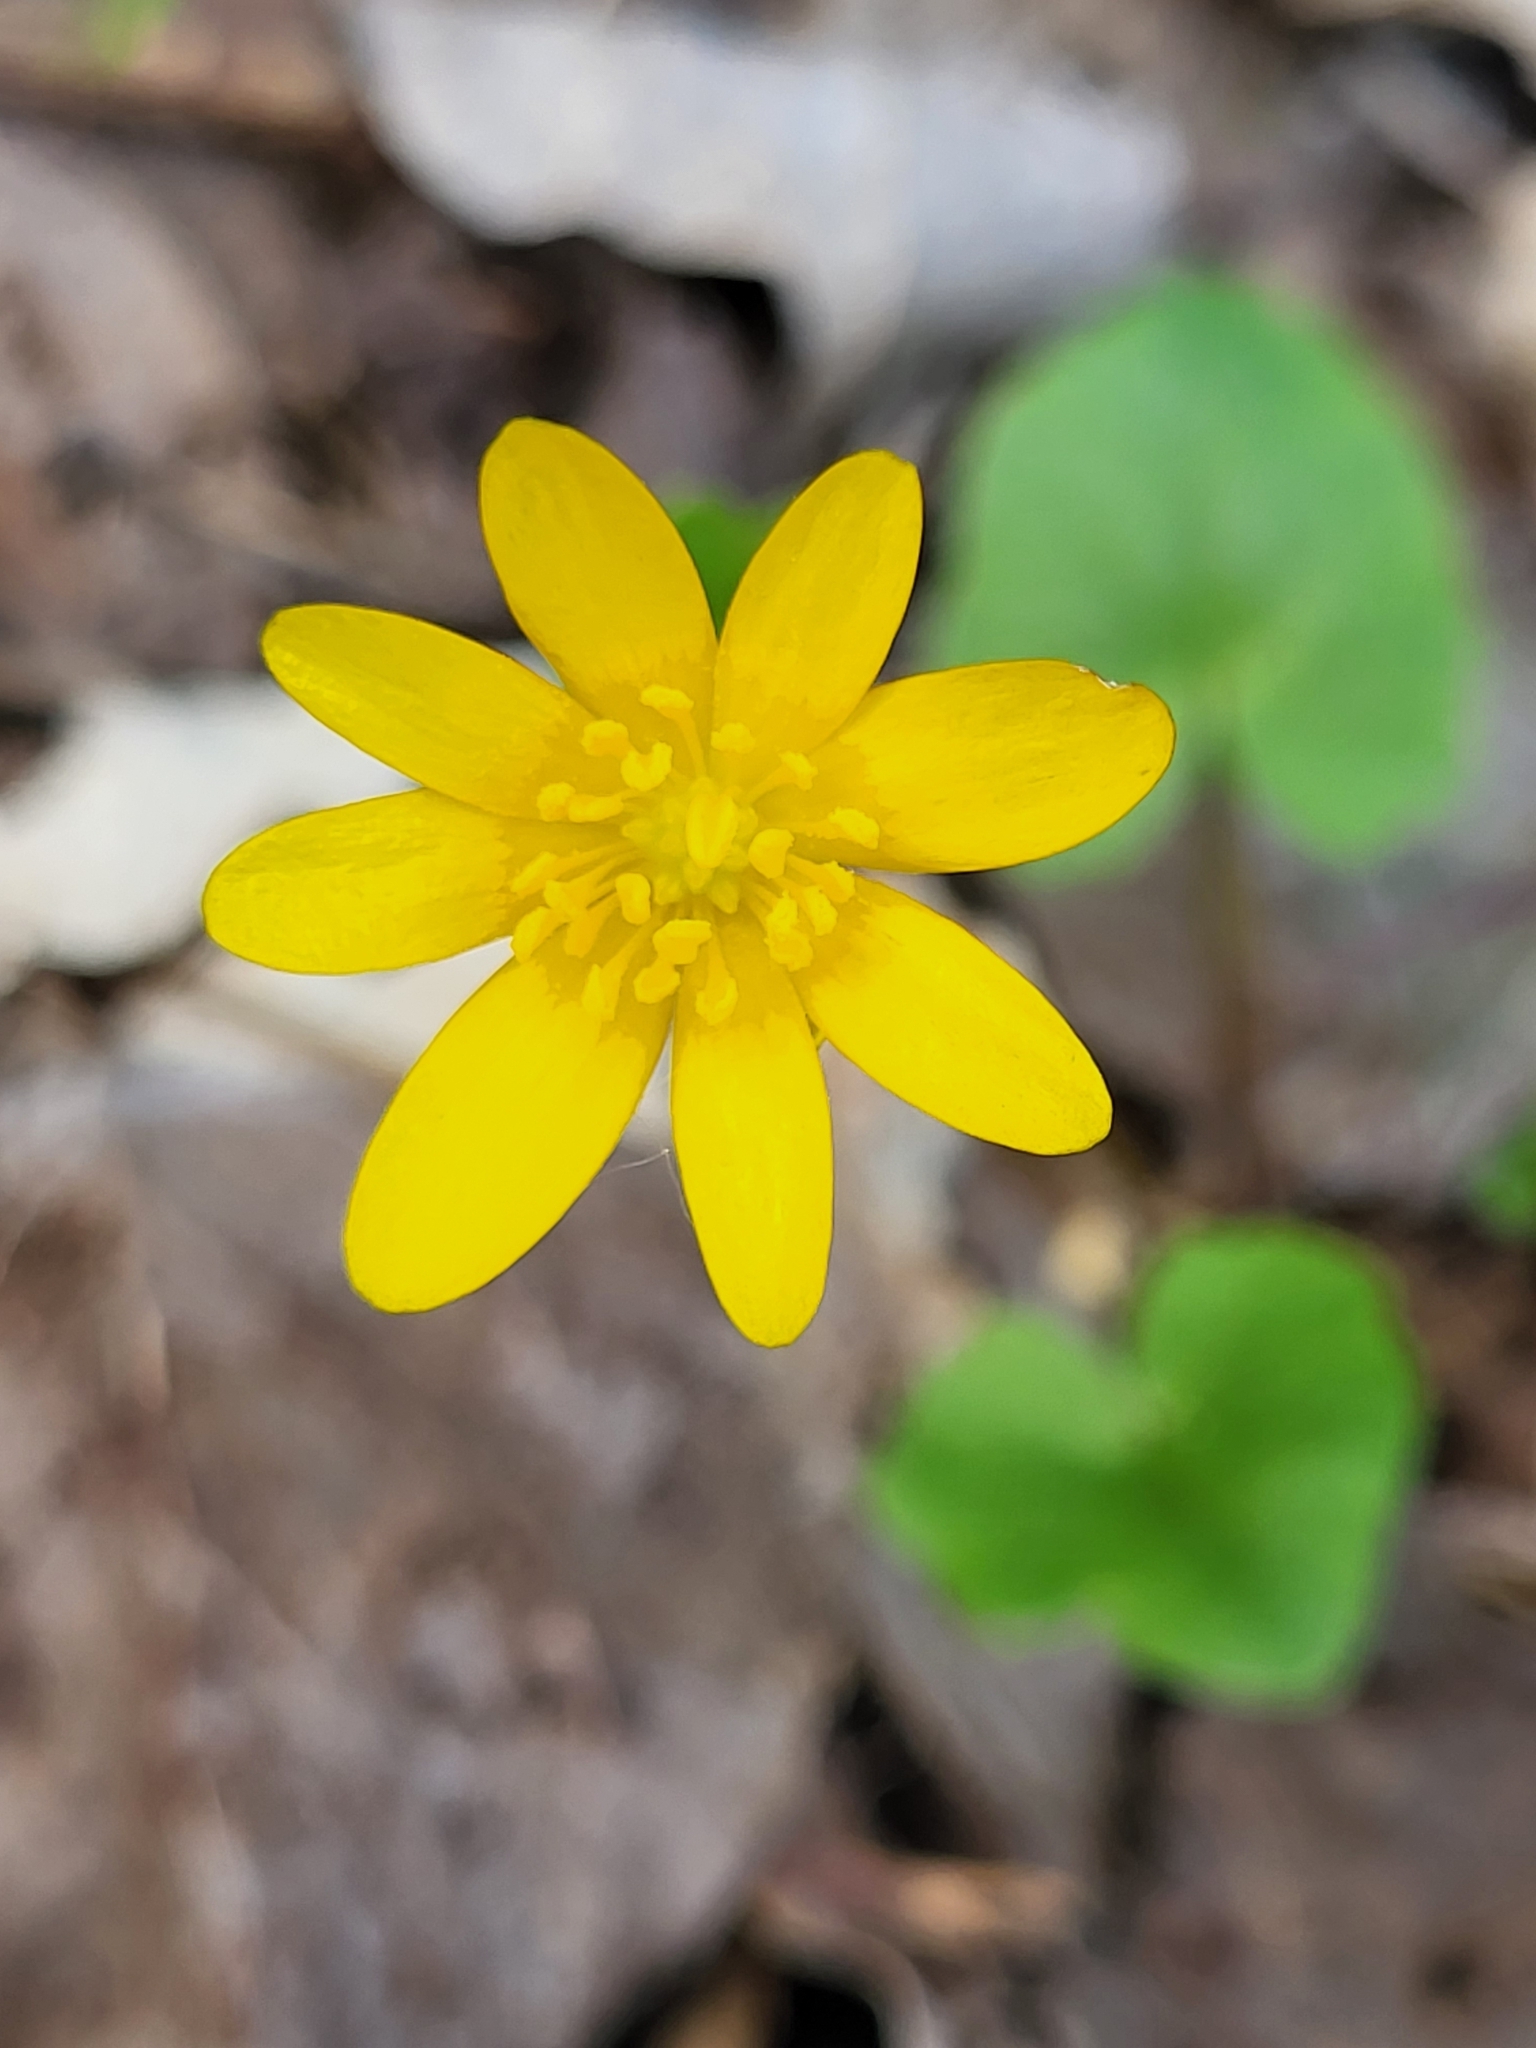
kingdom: Plantae
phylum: Tracheophyta
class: Magnoliopsida
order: Ranunculales
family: Ranunculaceae
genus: Ficaria
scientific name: Ficaria verna
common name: Lesser celandine
